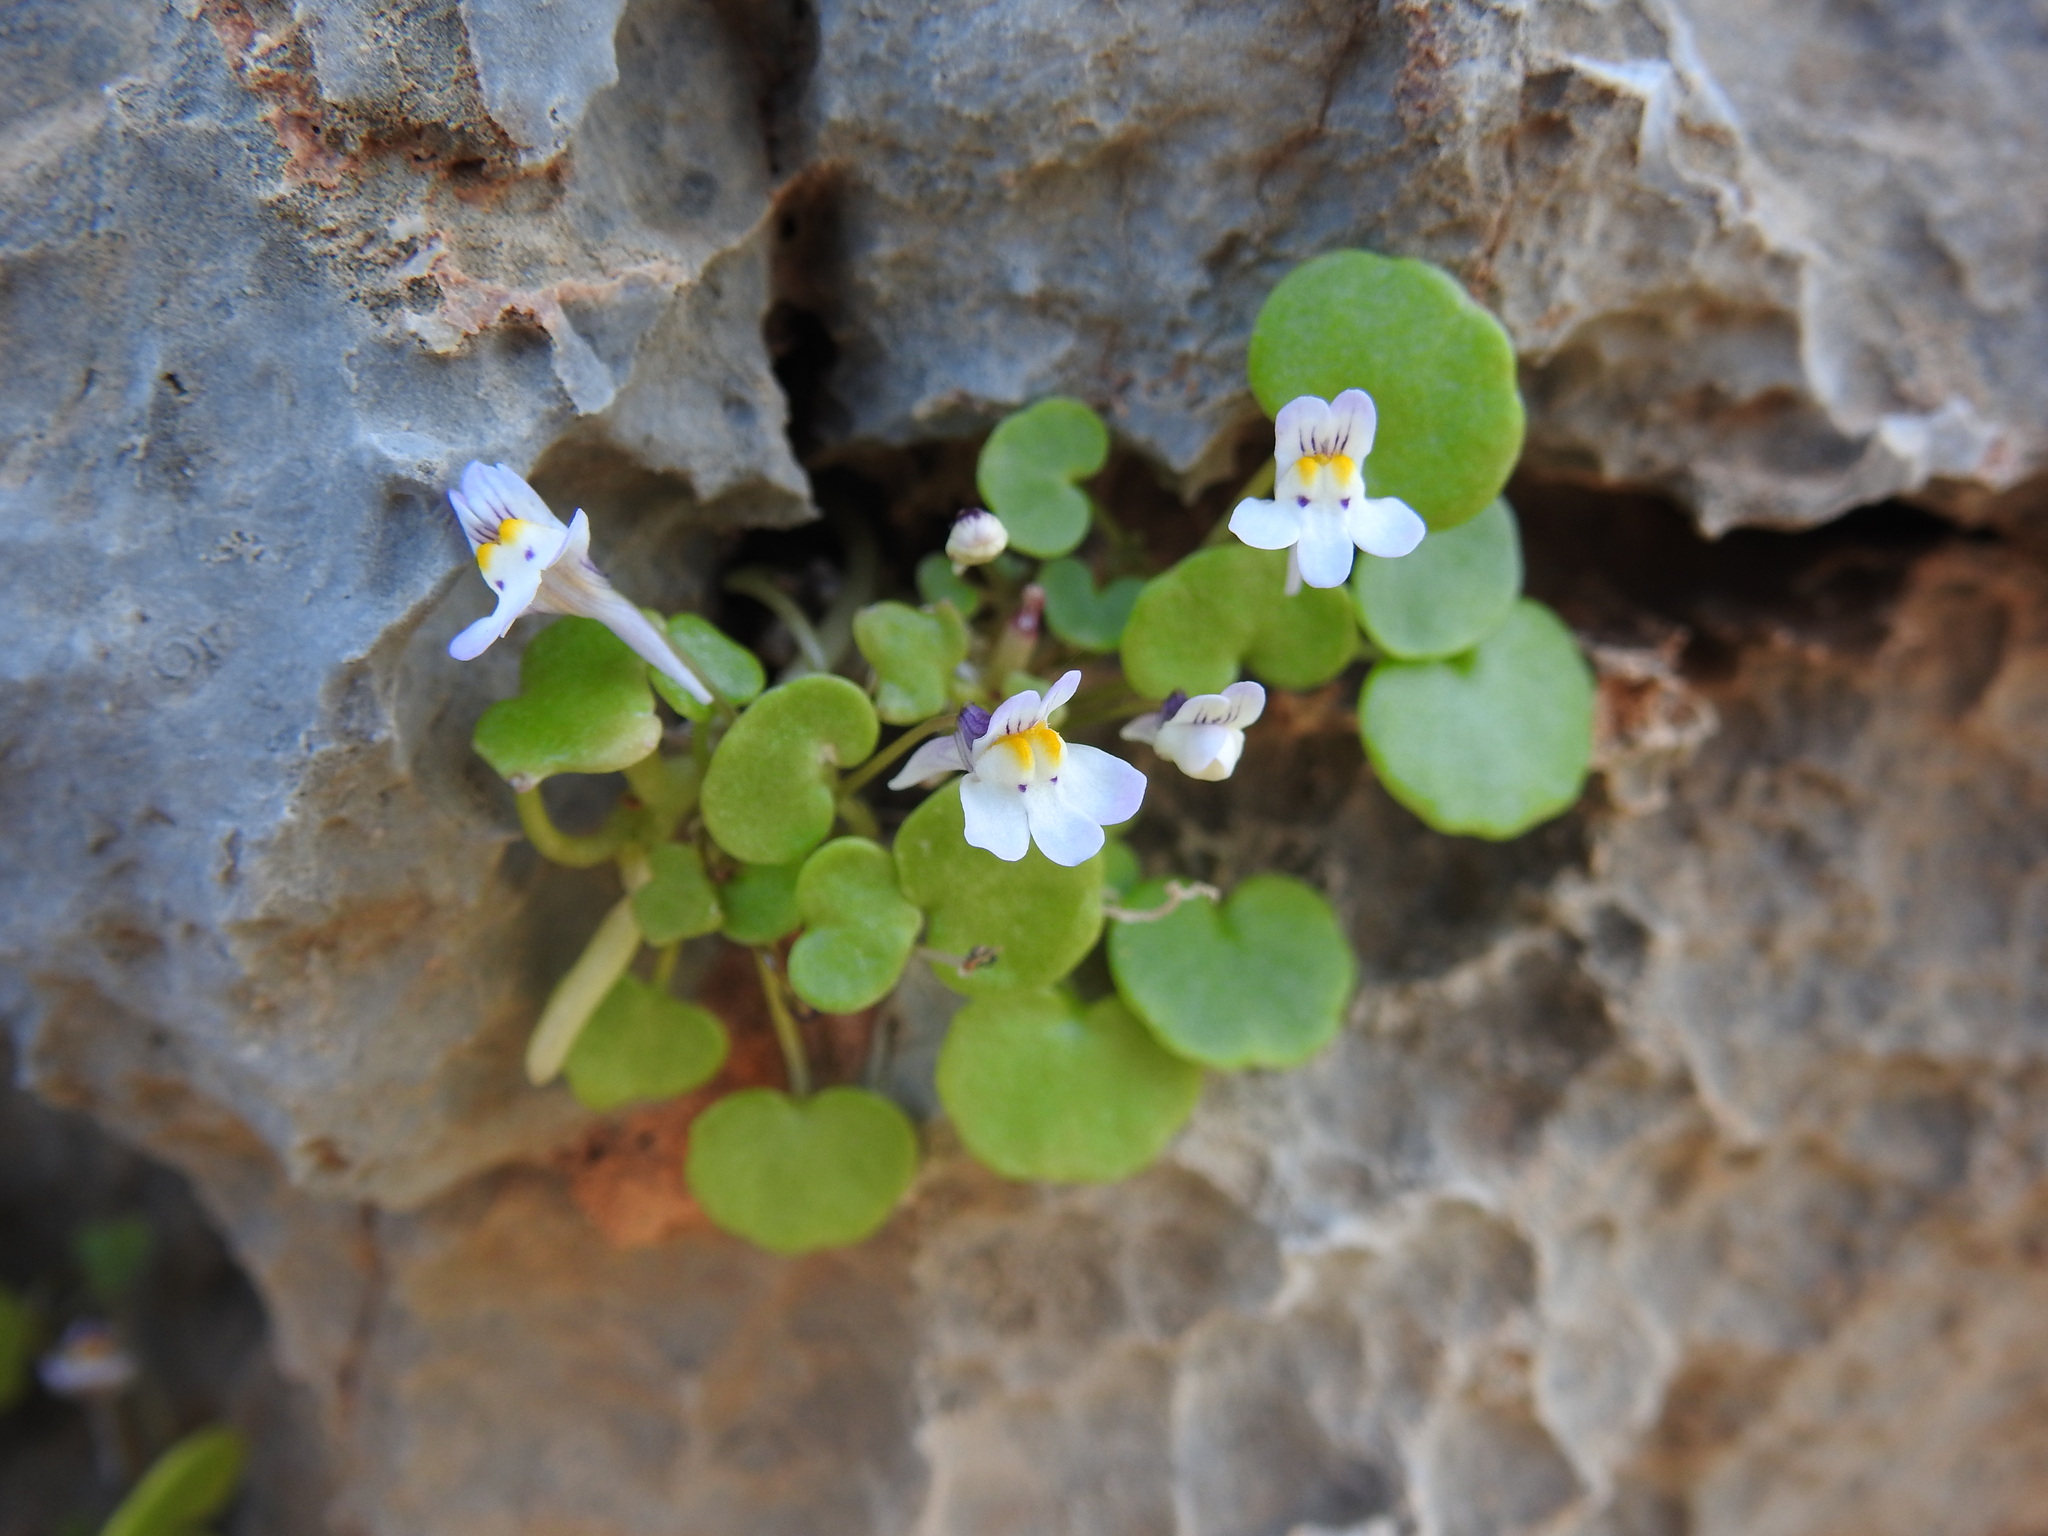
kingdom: Plantae
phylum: Tracheophyta
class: Magnoliopsida
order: Lamiales
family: Plantaginaceae
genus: Cymbalaria
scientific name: Cymbalaria longipes
